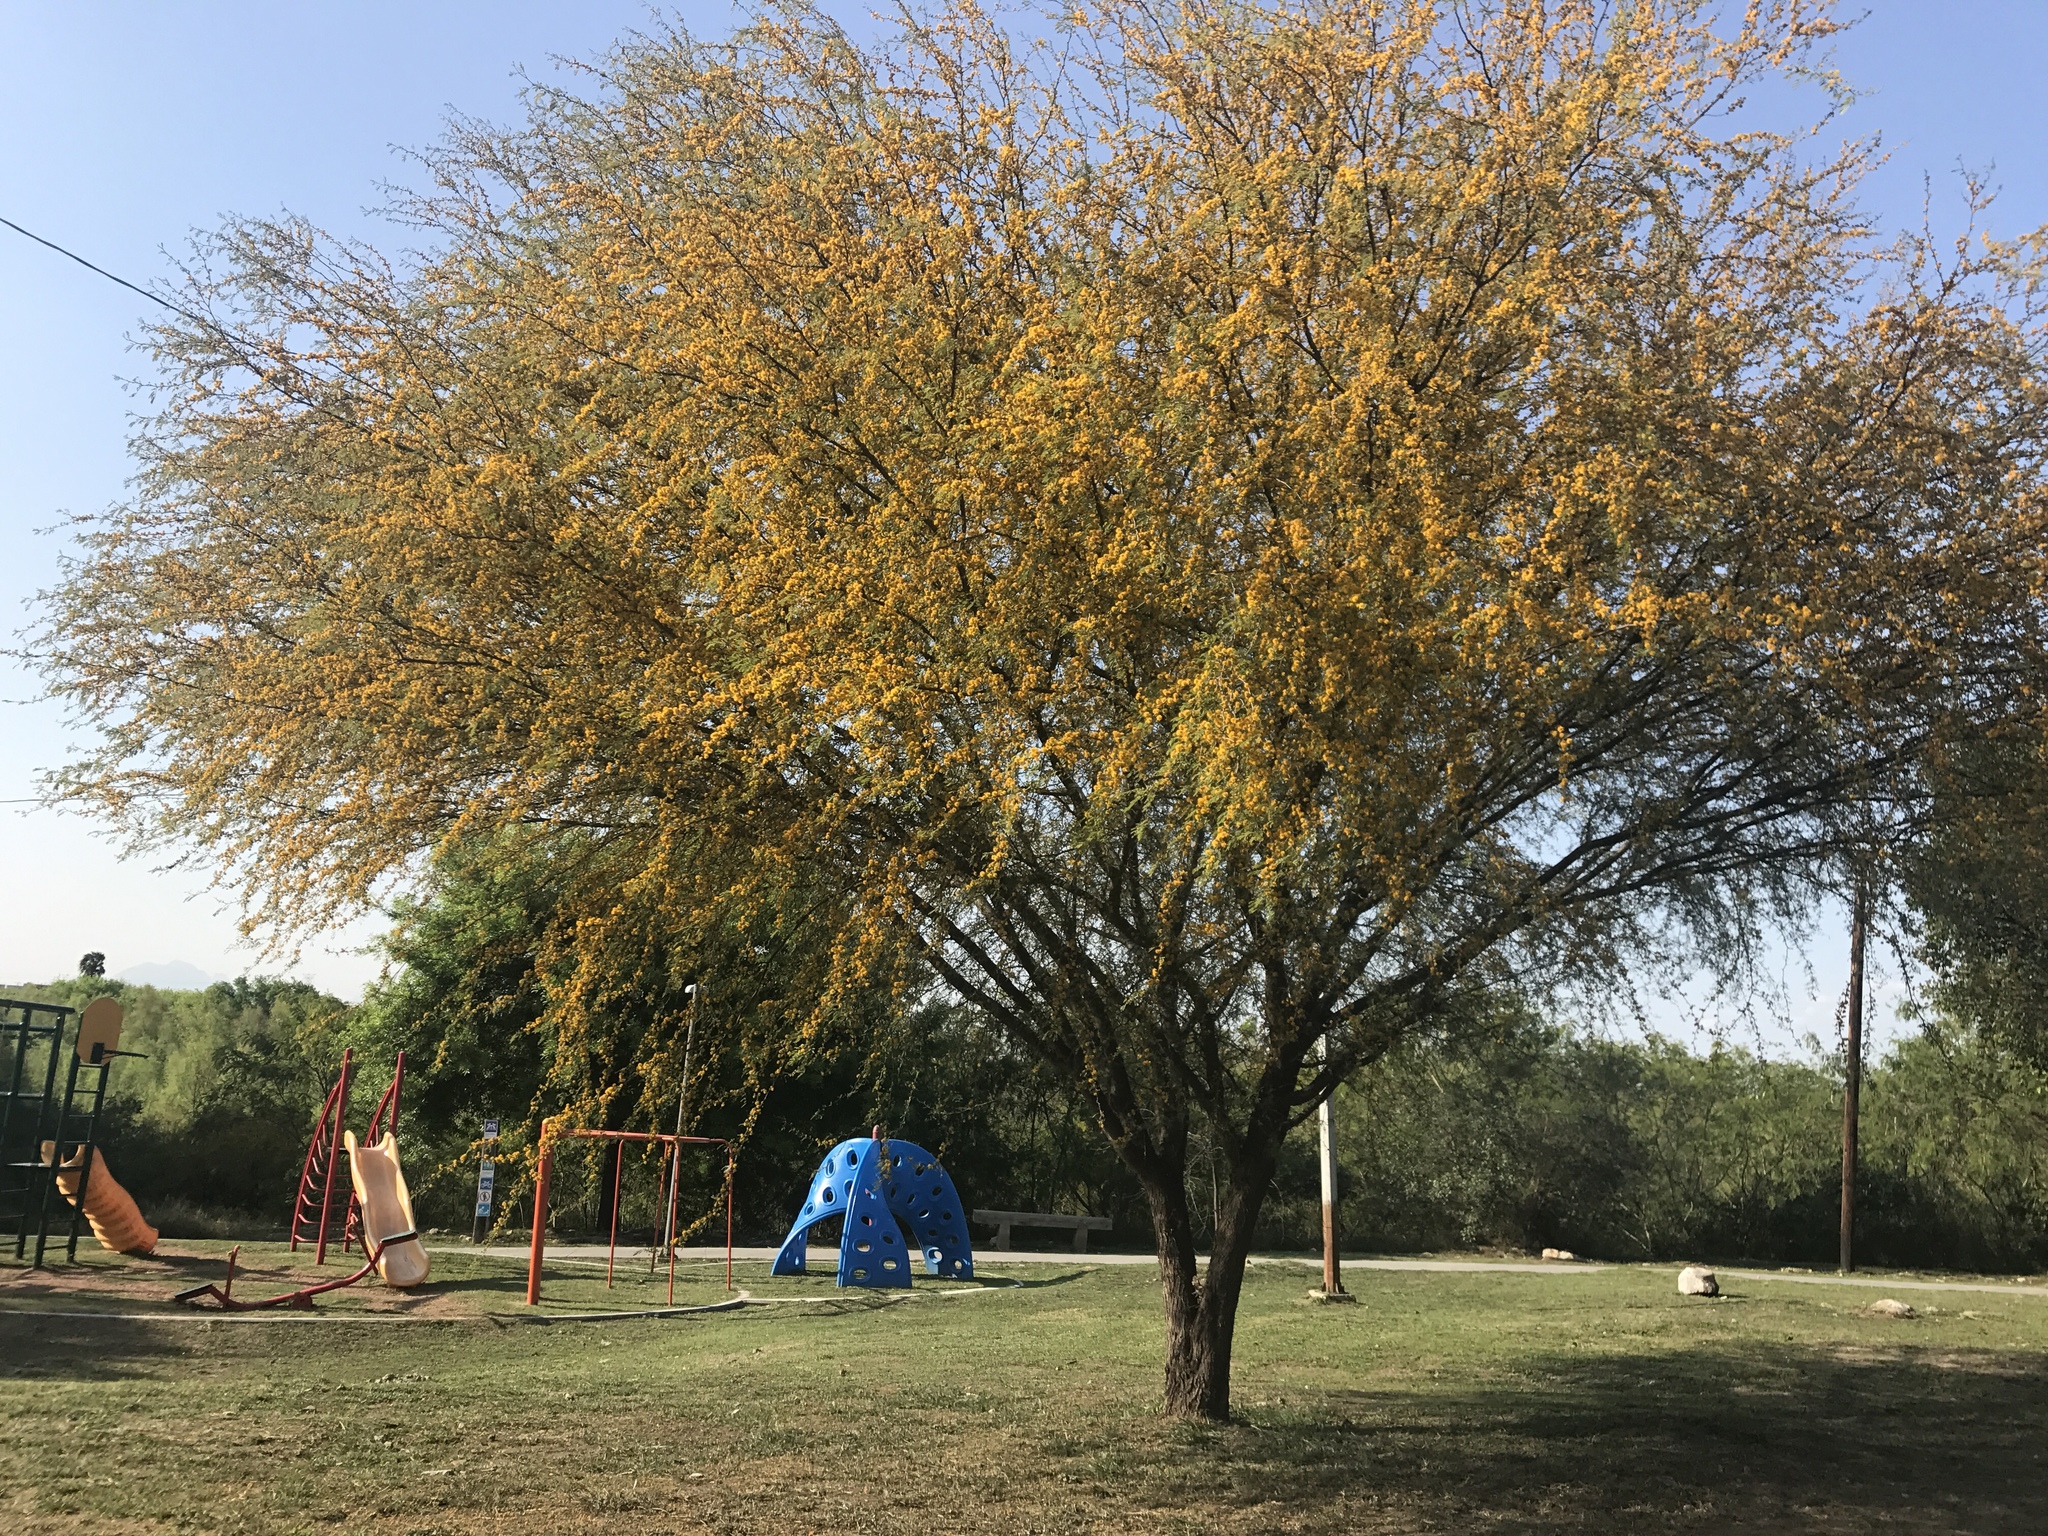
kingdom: Plantae
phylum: Tracheophyta
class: Magnoliopsida
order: Fabales
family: Fabaceae
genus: Vachellia
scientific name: Vachellia farnesiana
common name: Sweet acacia
